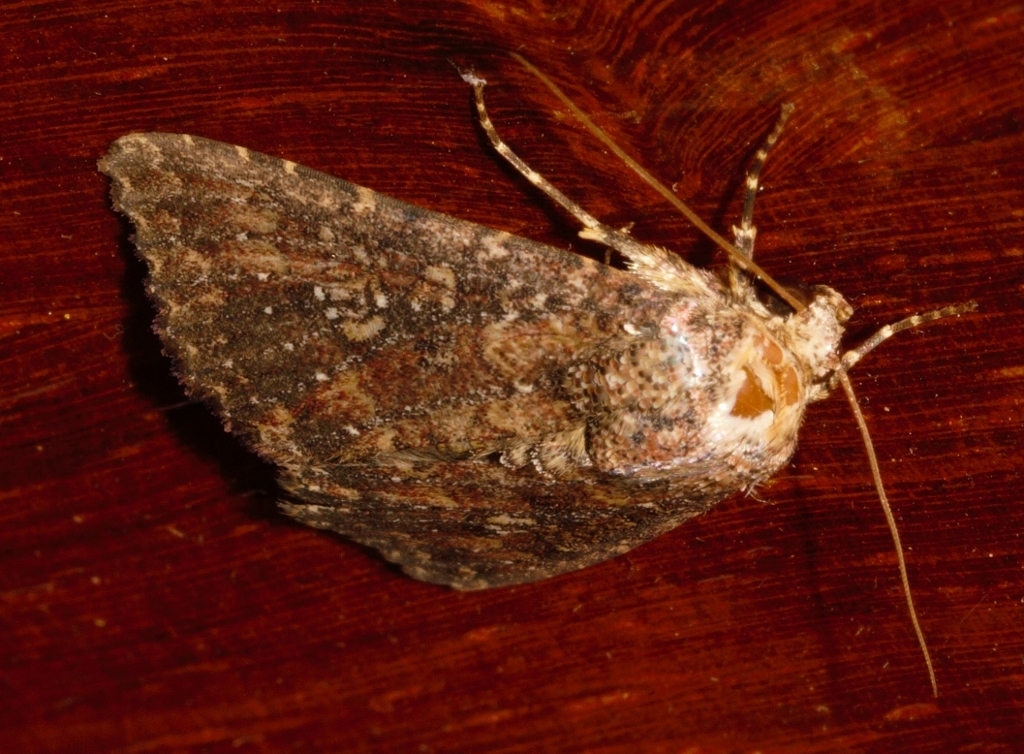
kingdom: Animalia
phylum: Arthropoda
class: Insecta
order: Lepidoptera
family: Noctuidae
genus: Condica
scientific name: Condica capensis
